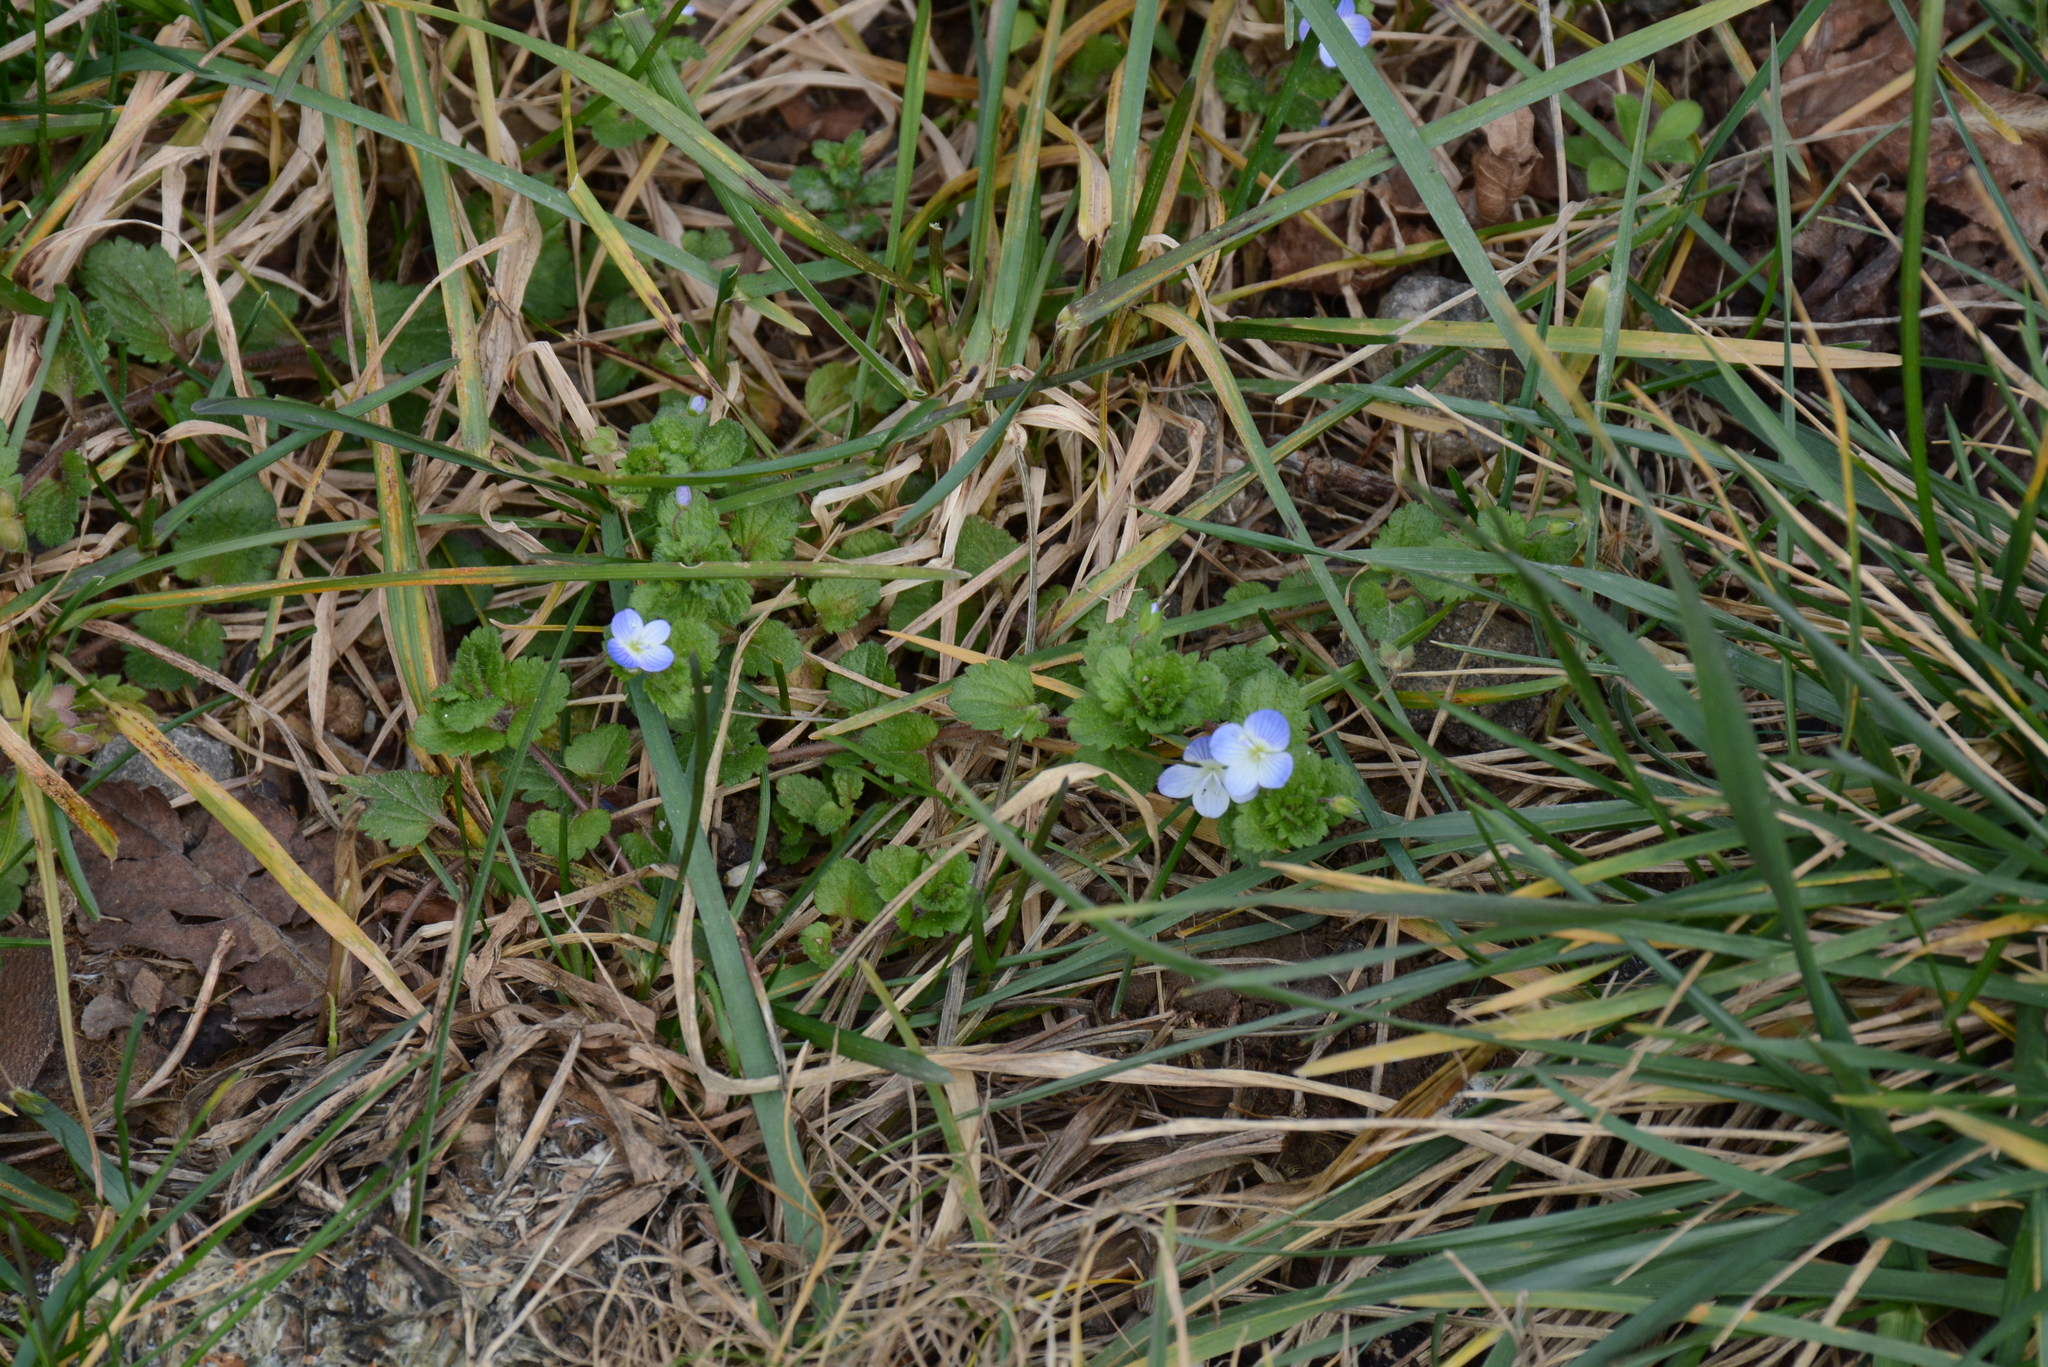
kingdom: Plantae
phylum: Tracheophyta
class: Magnoliopsida
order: Lamiales
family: Plantaginaceae
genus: Veronica
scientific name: Veronica persica
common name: Common field-speedwell
